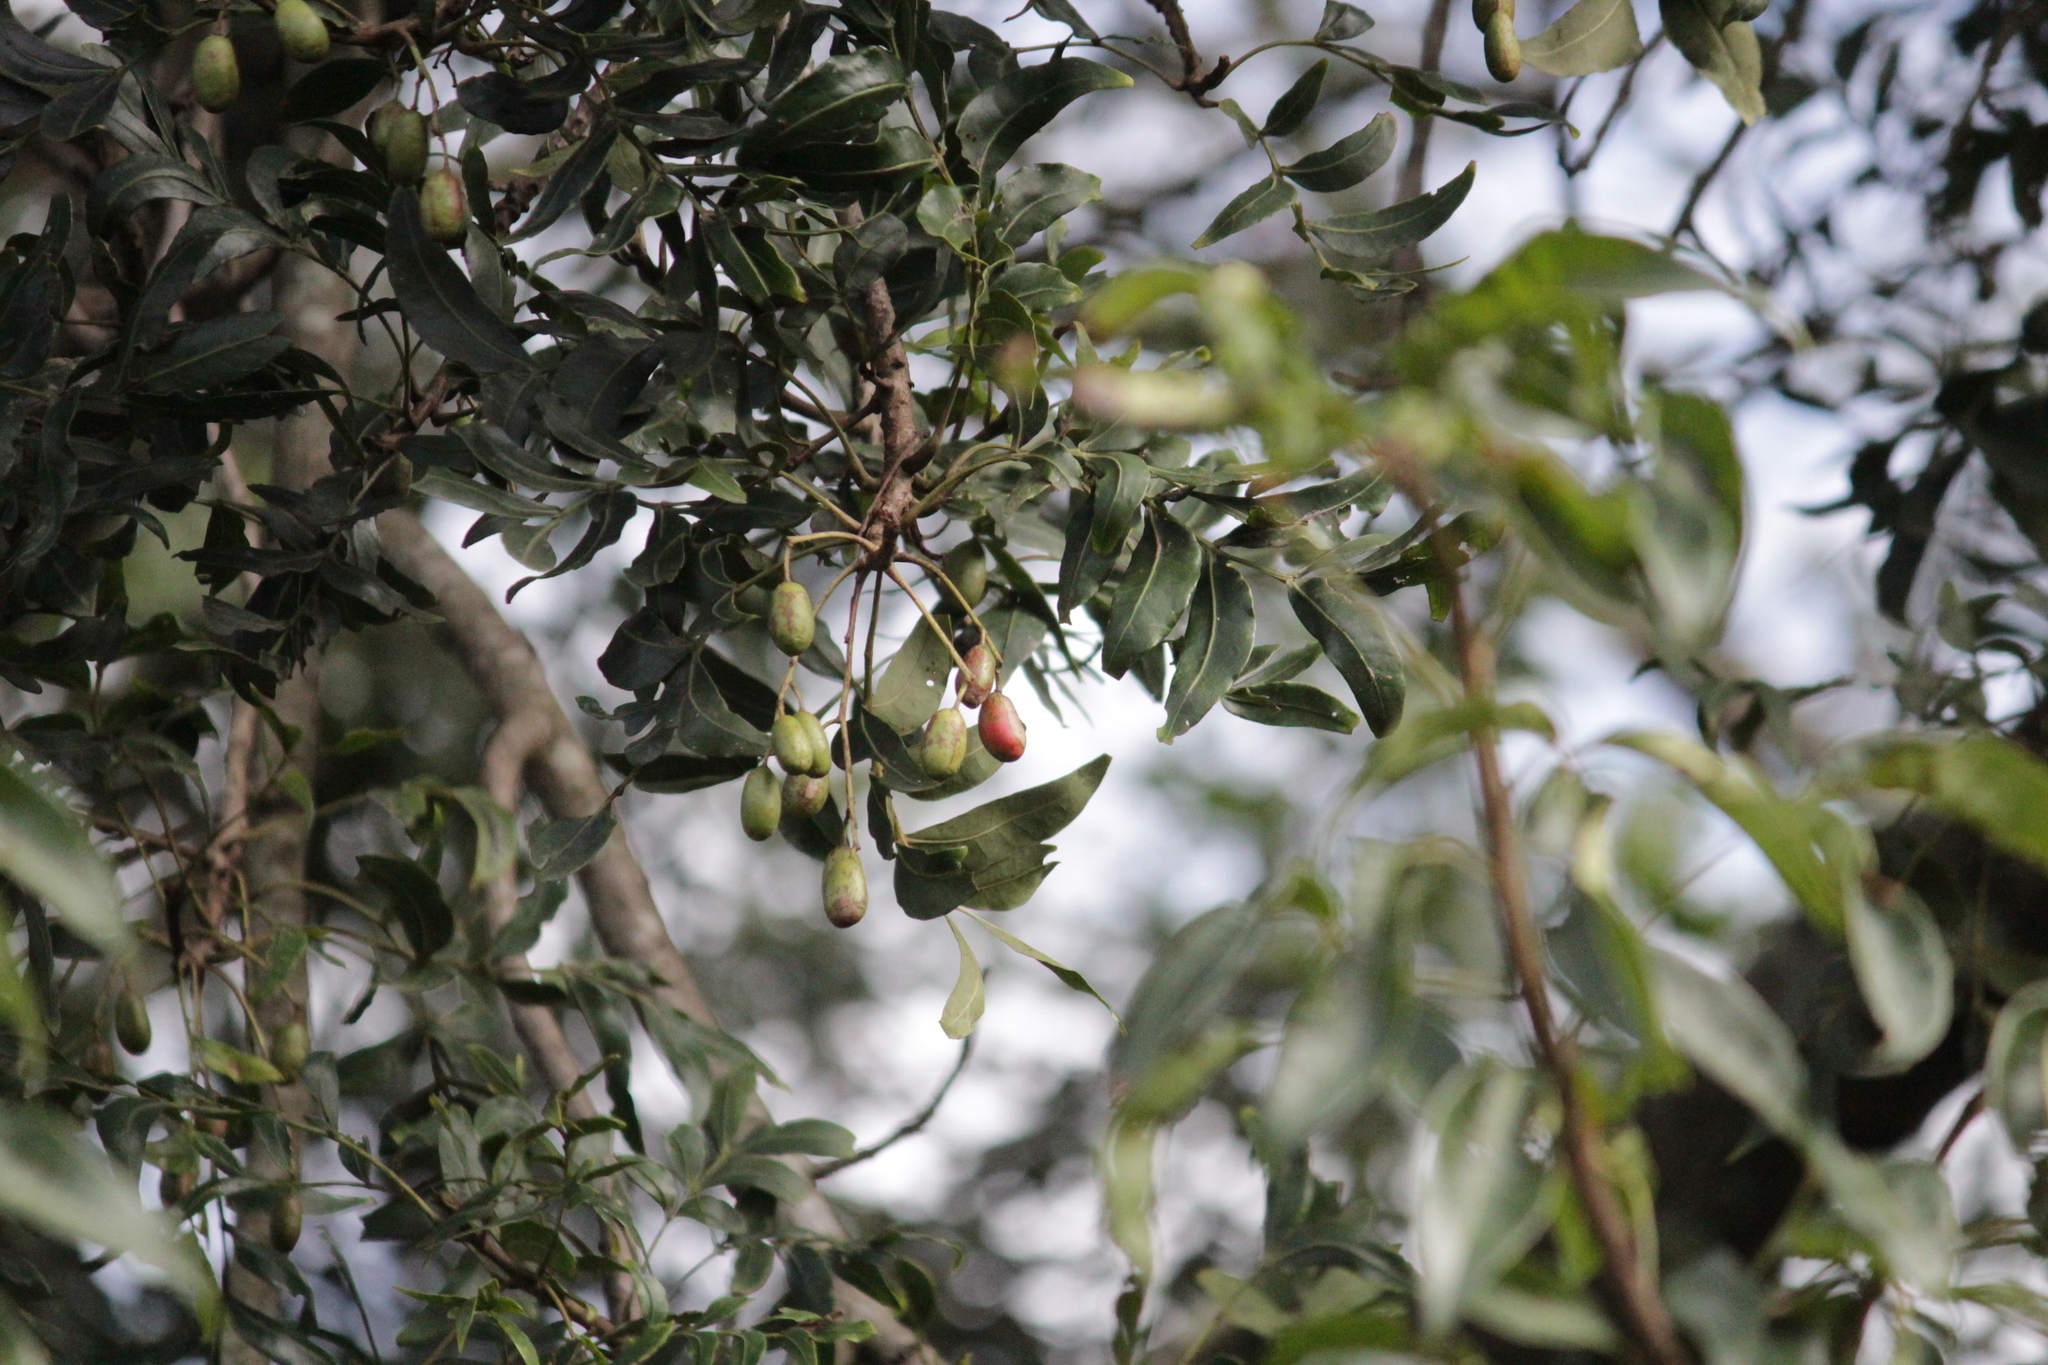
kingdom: Plantae
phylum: Tracheophyta
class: Magnoliopsida
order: Sapindales
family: Anacardiaceae
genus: Harpephyllum
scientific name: Harpephyllum caffrum
